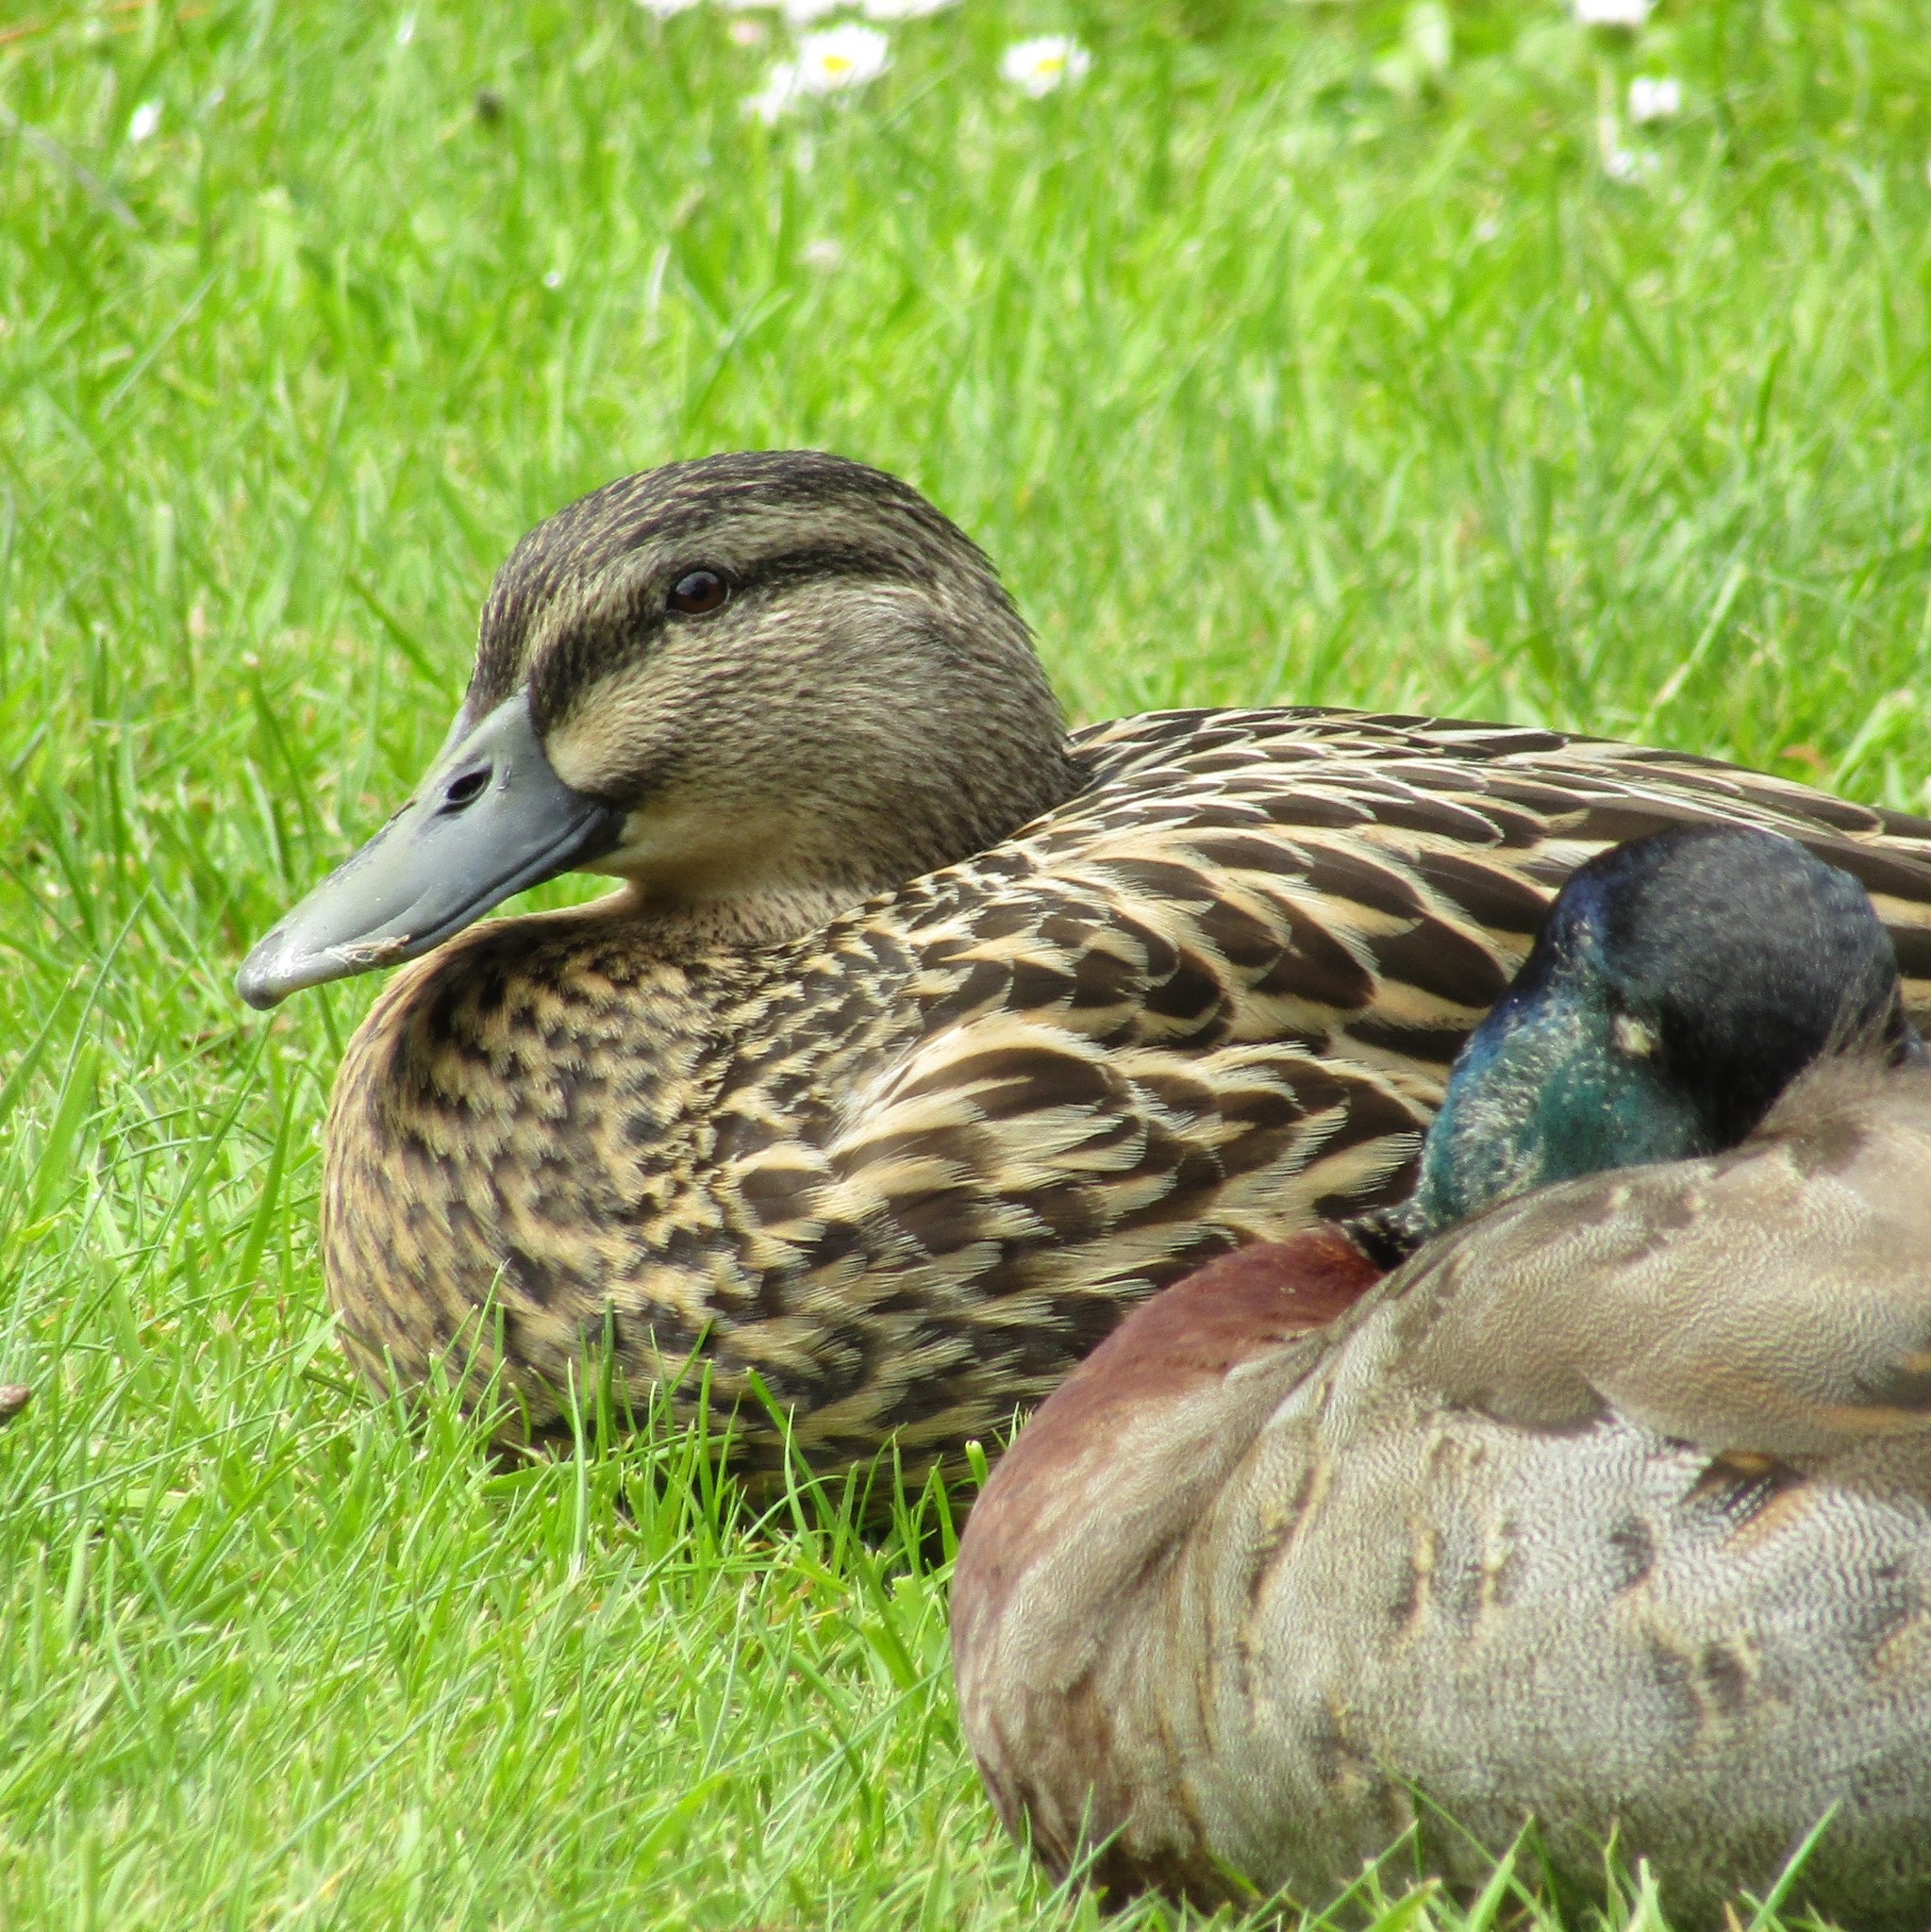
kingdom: Animalia
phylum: Chordata
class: Aves
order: Anseriformes
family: Anatidae
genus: Anas
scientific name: Anas
